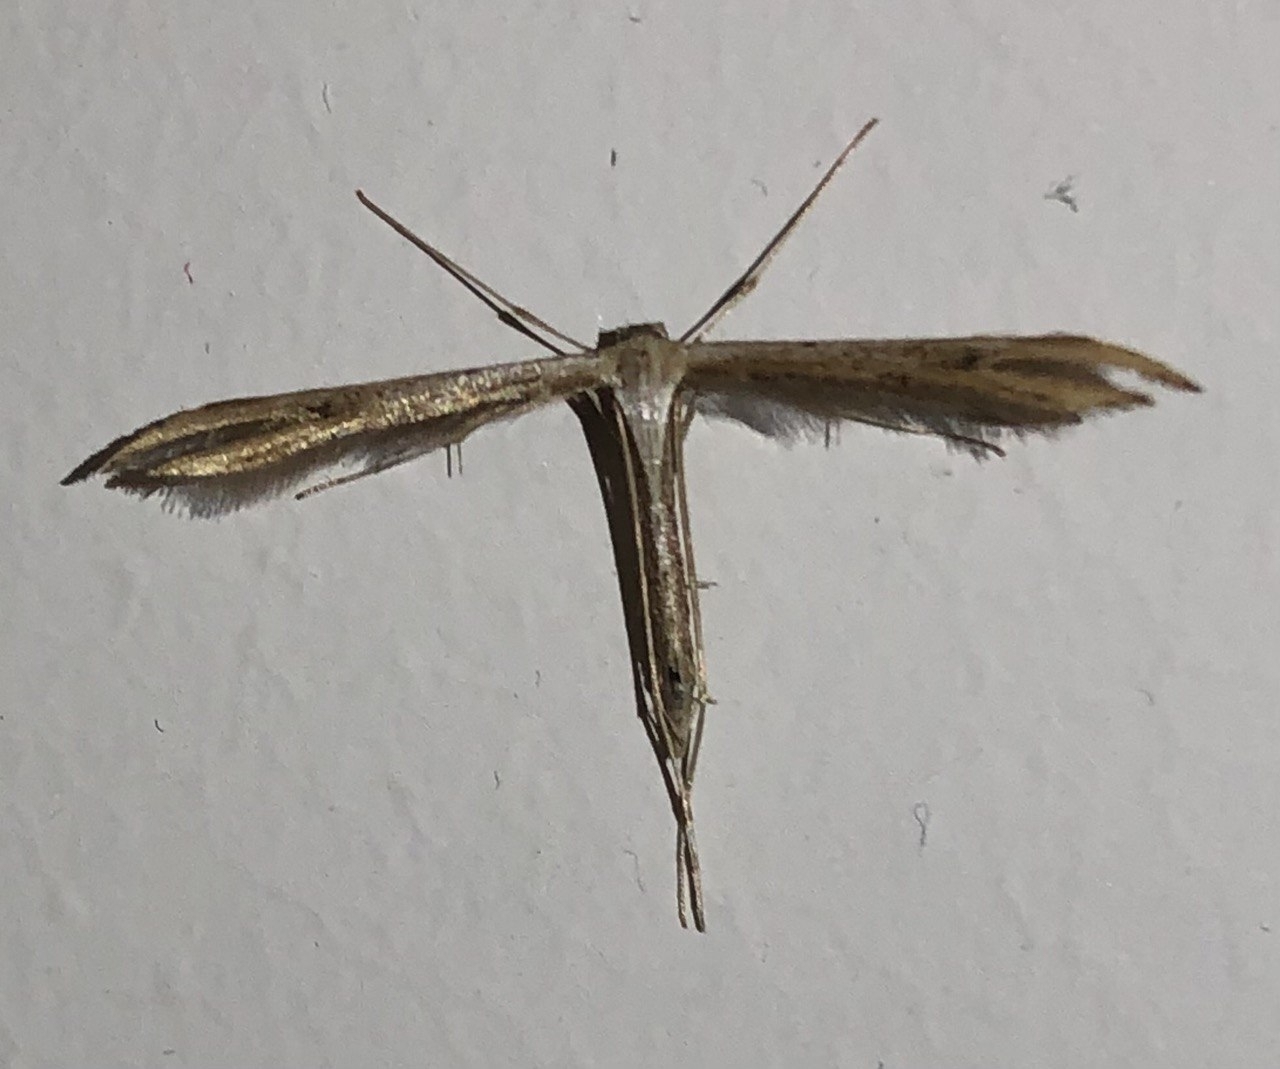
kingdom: Animalia
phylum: Arthropoda
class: Insecta
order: Lepidoptera
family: Pterophoridae
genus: Emmelina
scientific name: Emmelina monodactyla
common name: Common plume
